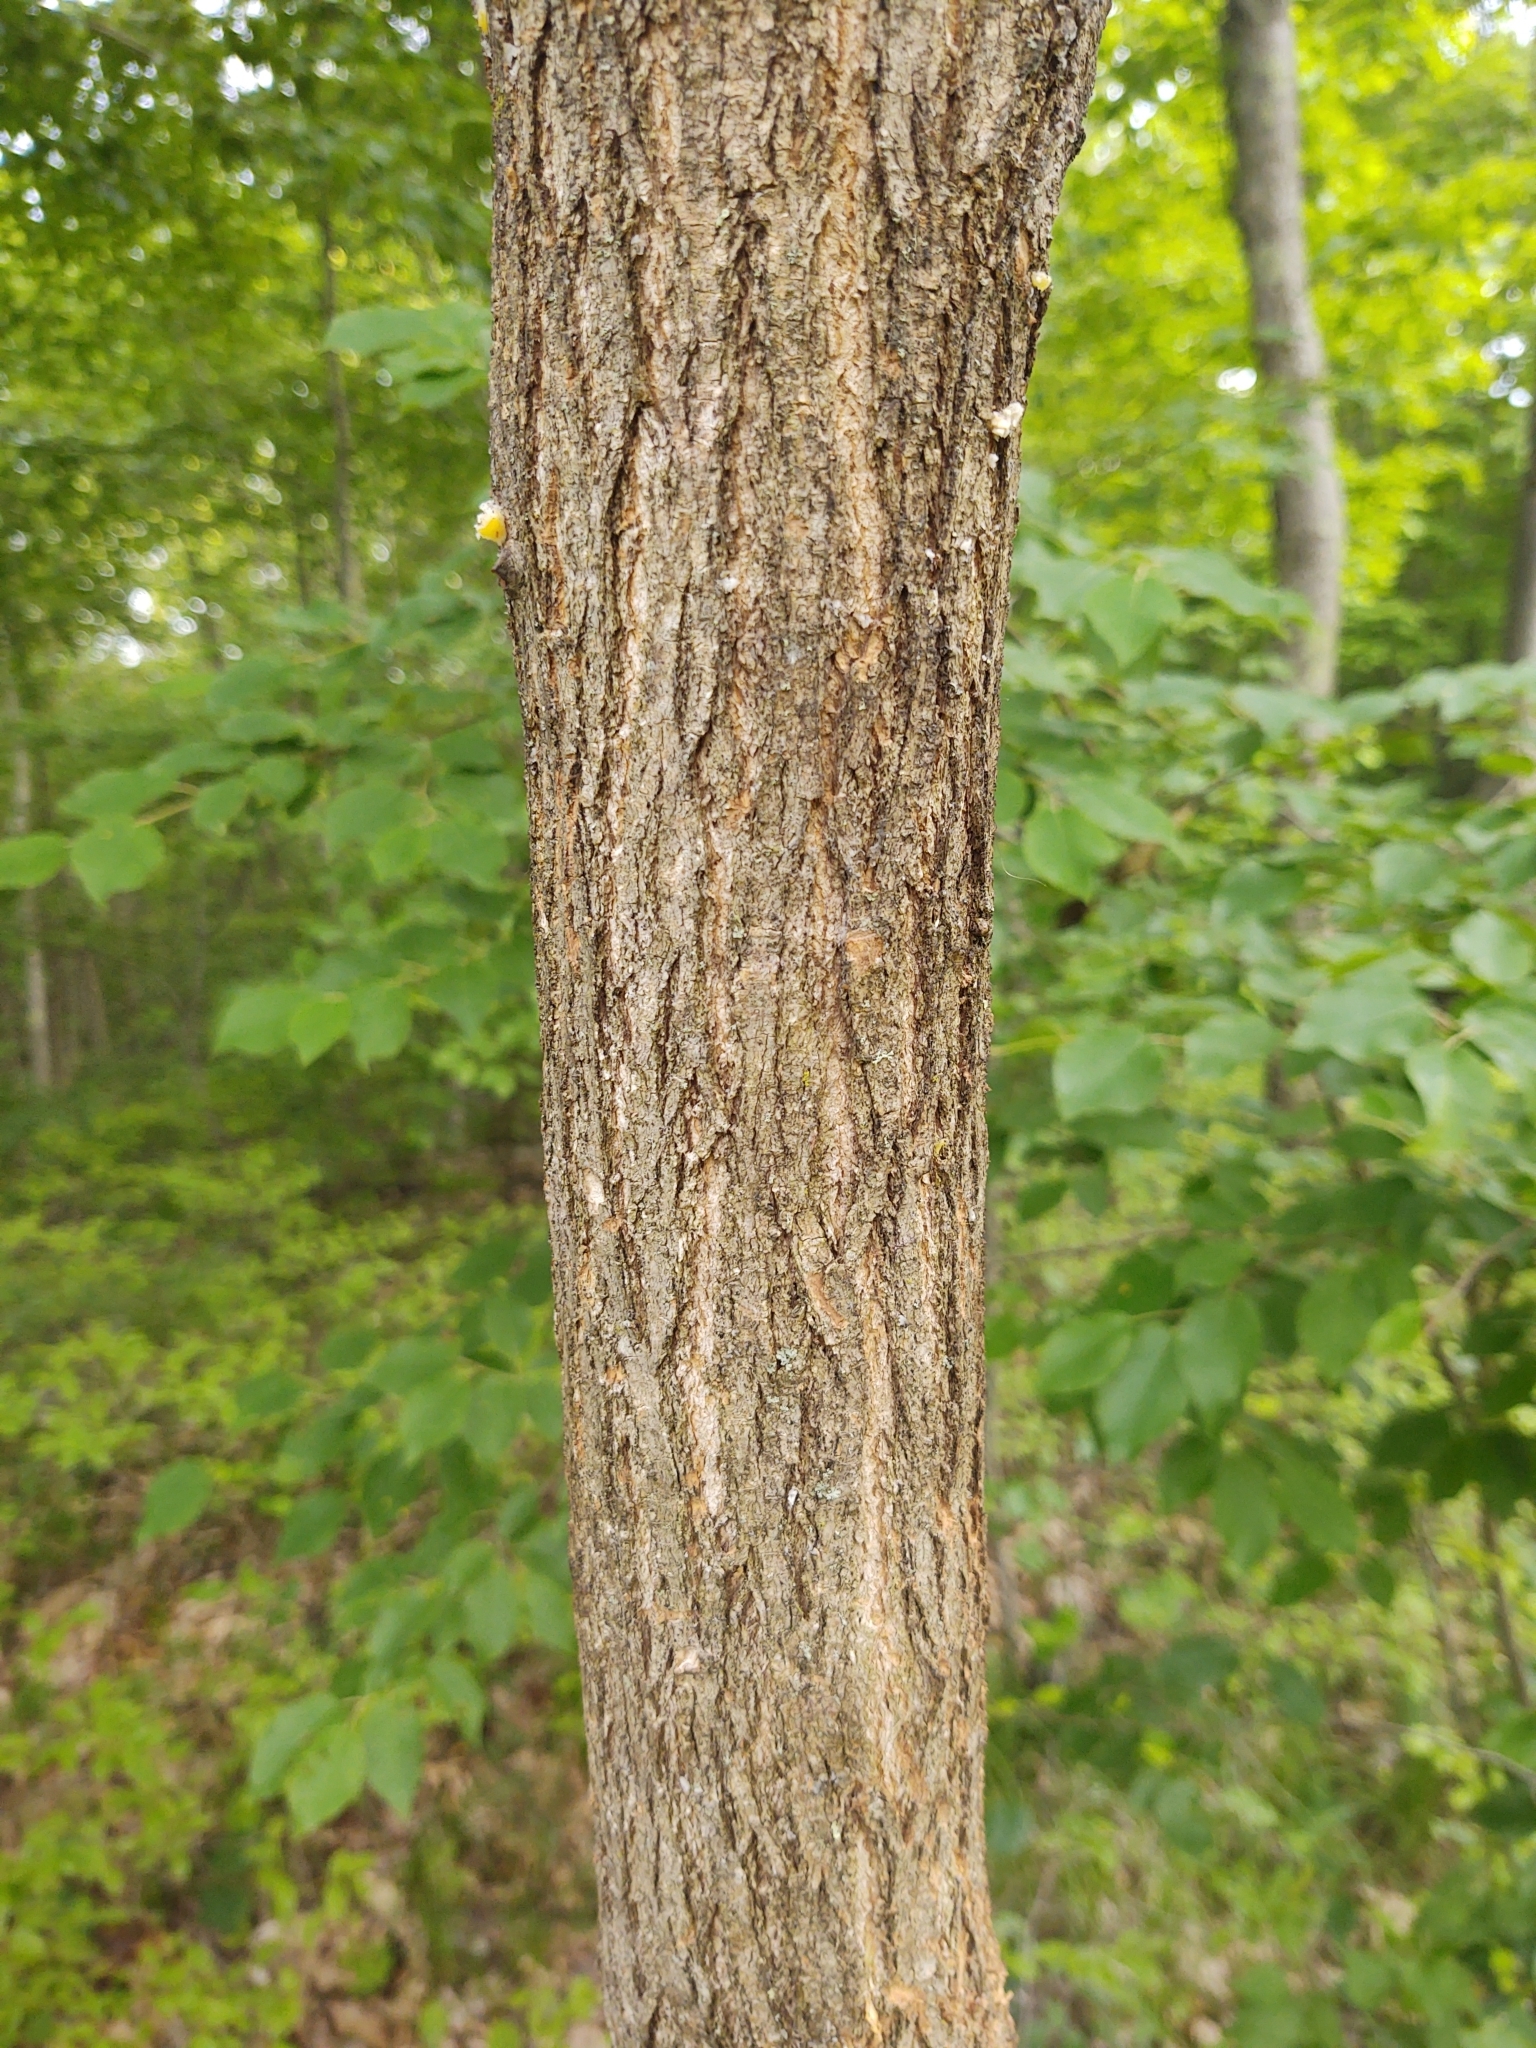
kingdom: Plantae
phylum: Tracheophyta
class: Magnoliopsida
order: Fabales
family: Fabaceae
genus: Robinia
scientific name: Robinia pseudoacacia
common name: Black locust
